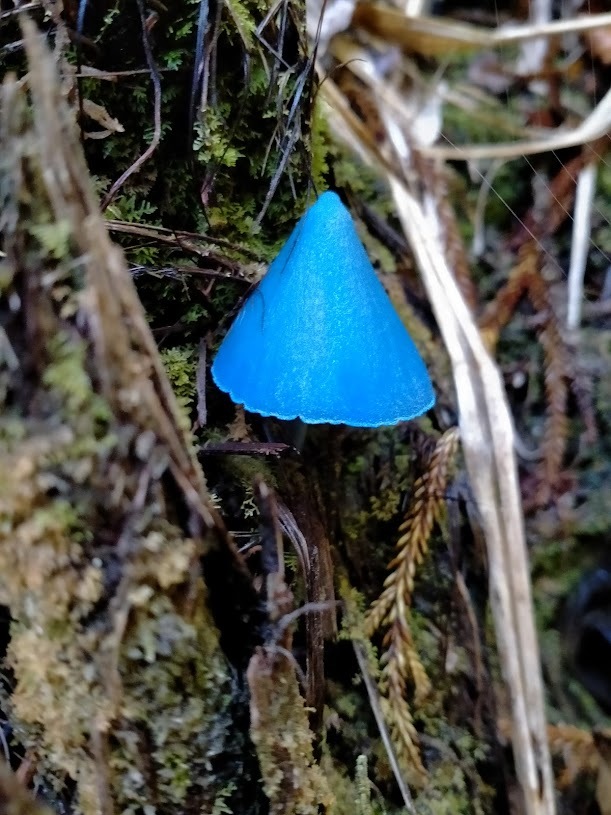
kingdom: Fungi
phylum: Basidiomycota
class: Agaricomycetes
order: Agaricales
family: Entolomataceae
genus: Entoloma
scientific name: Entoloma hochstetteri
